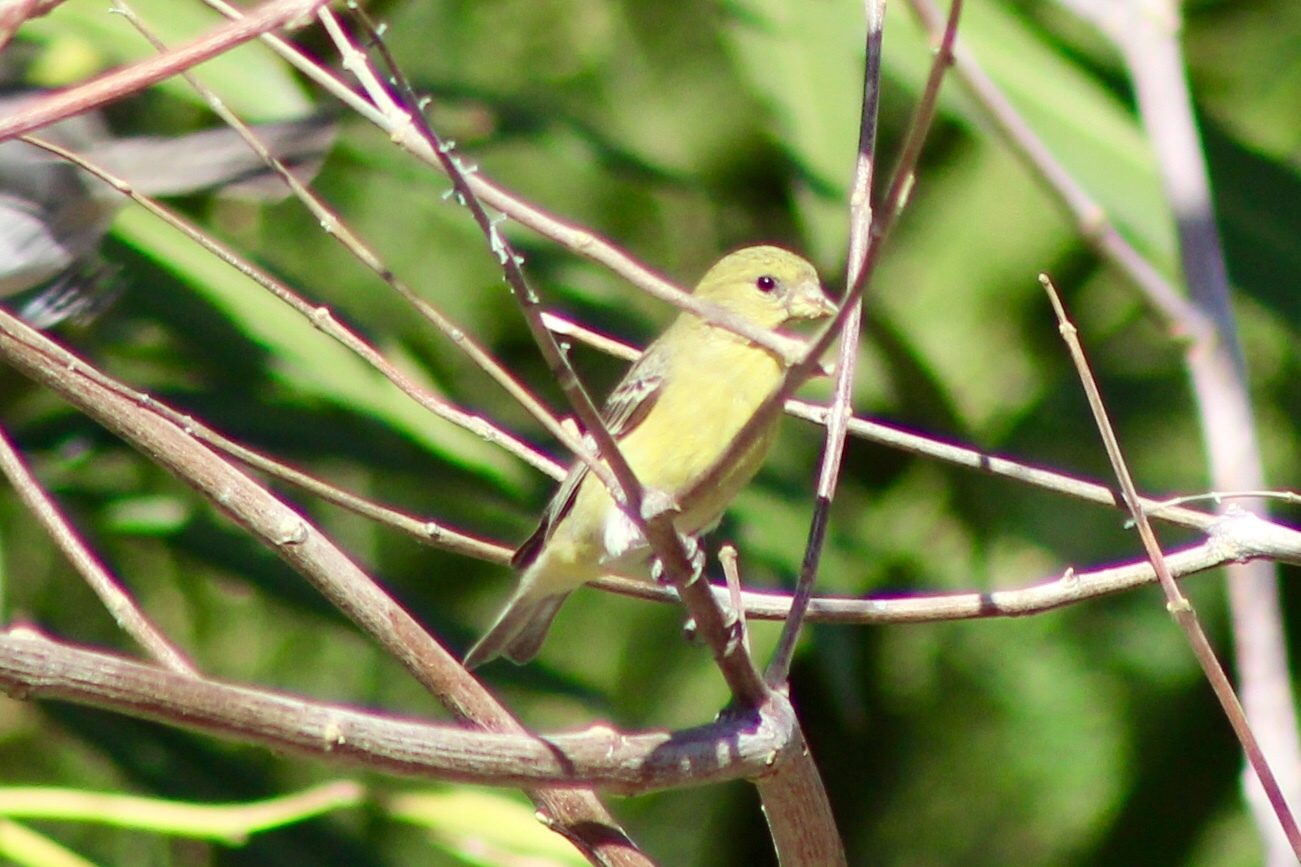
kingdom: Animalia
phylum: Chordata
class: Aves
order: Passeriformes
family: Fringillidae
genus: Spinus
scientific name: Spinus psaltria
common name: Lesser goldfinch
